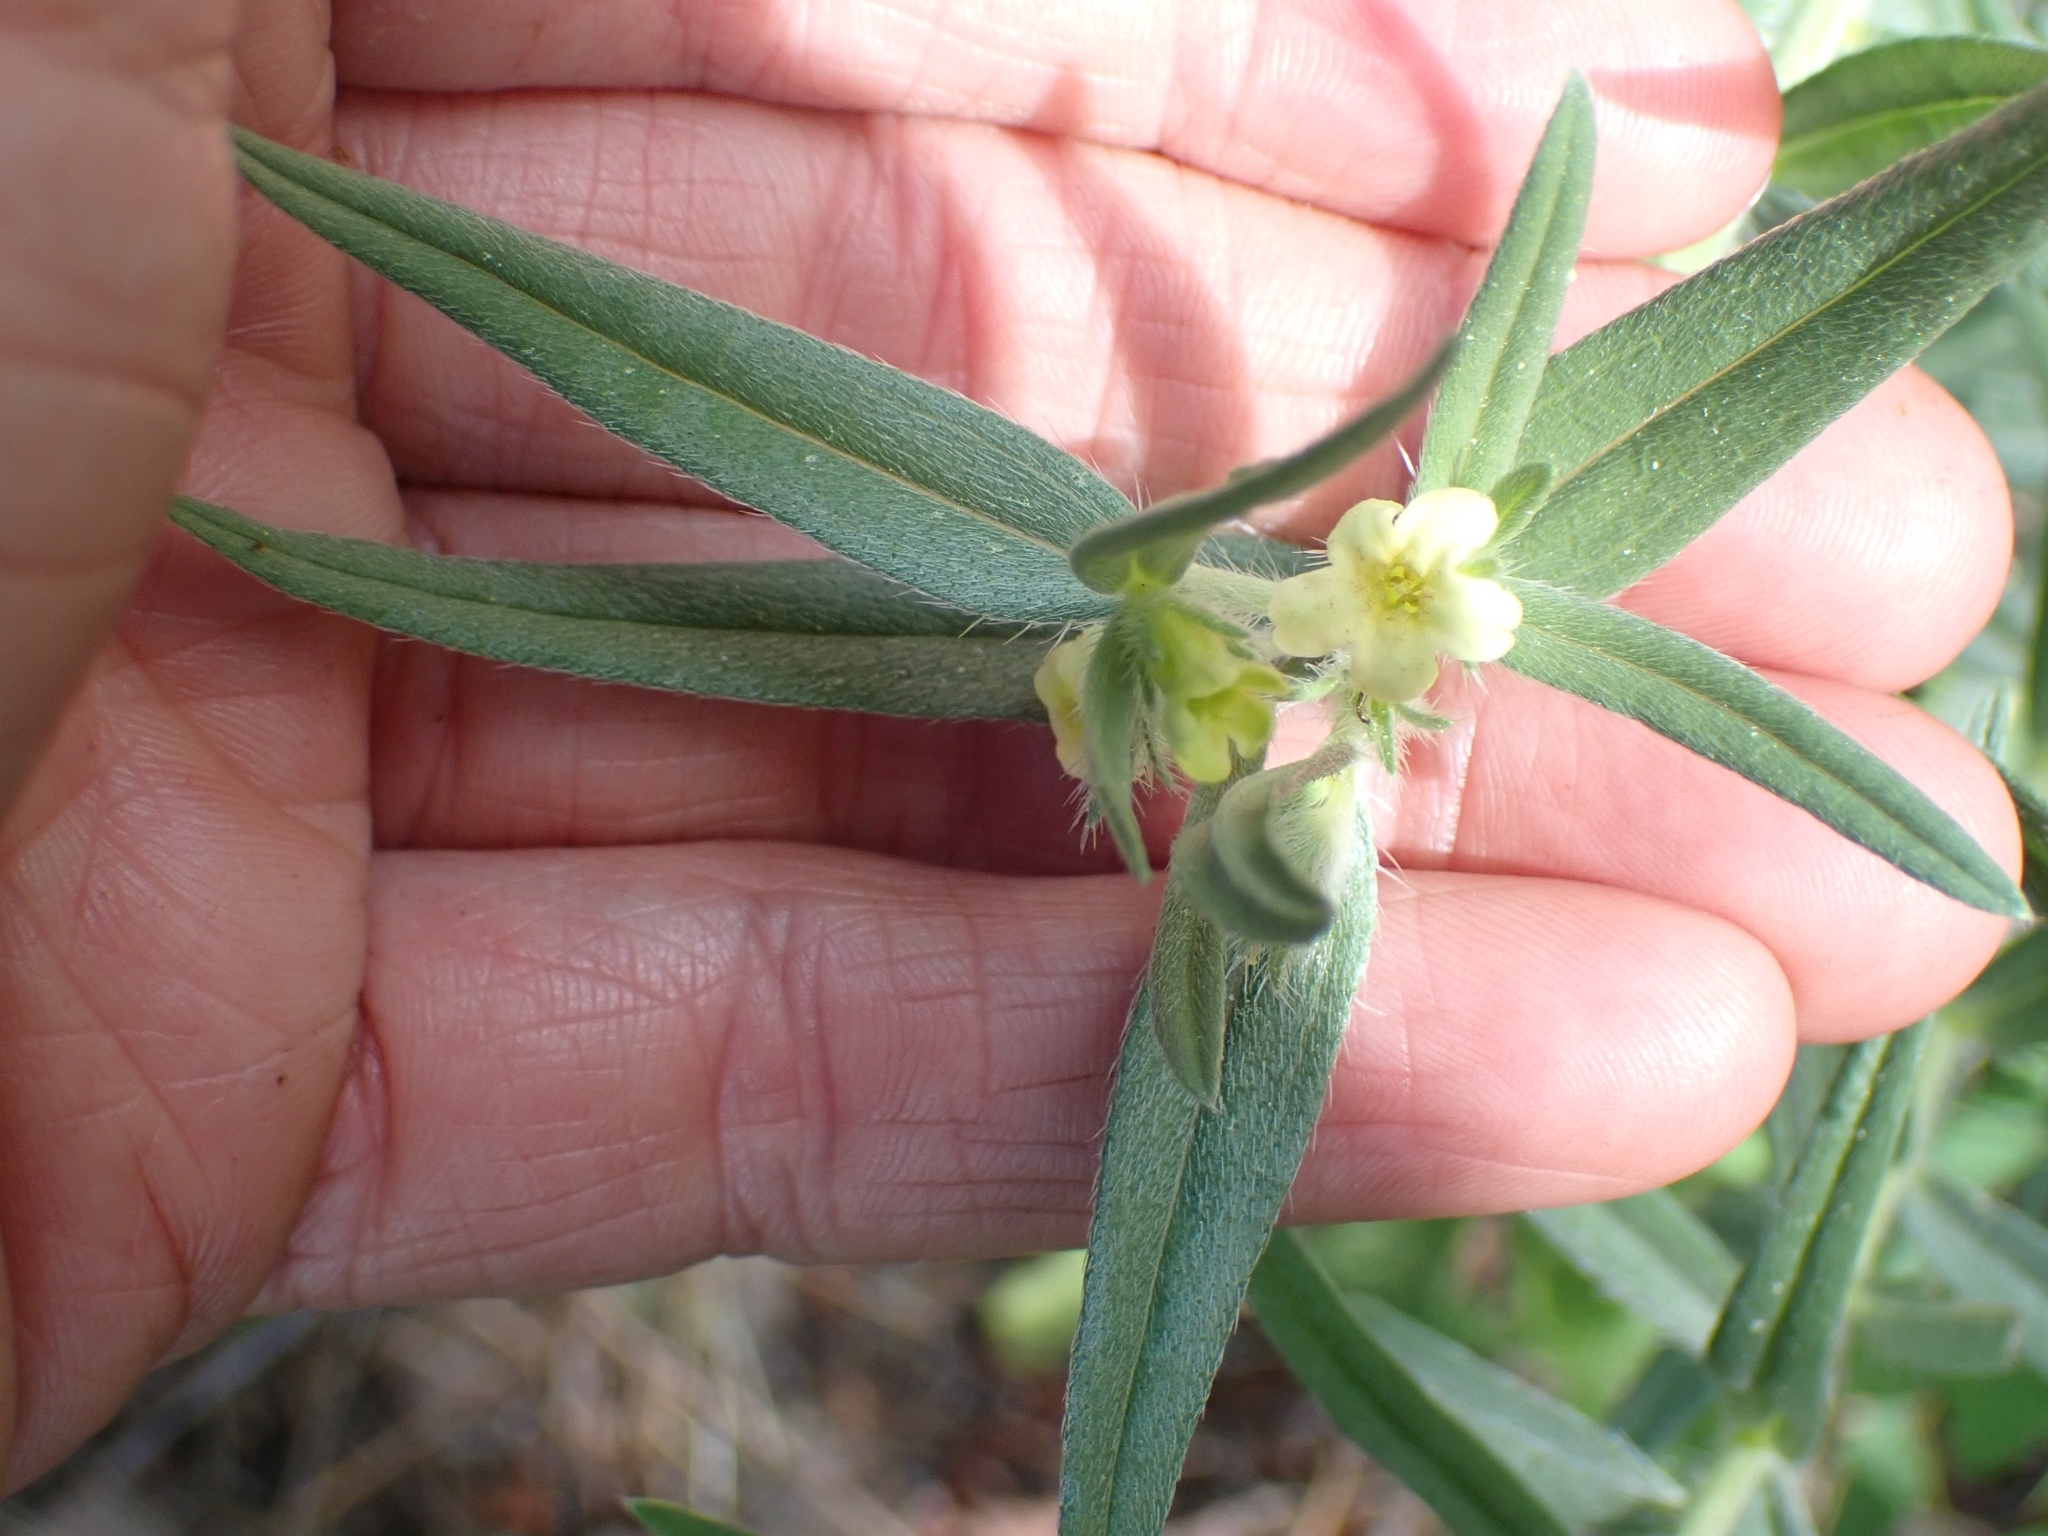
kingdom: Plantae
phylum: Tracheophyta
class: Magnoliopsida
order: Boraginales
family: Boraginaceae
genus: Lithospermum
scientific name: Lithospermum ruderale
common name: Western gromwell
